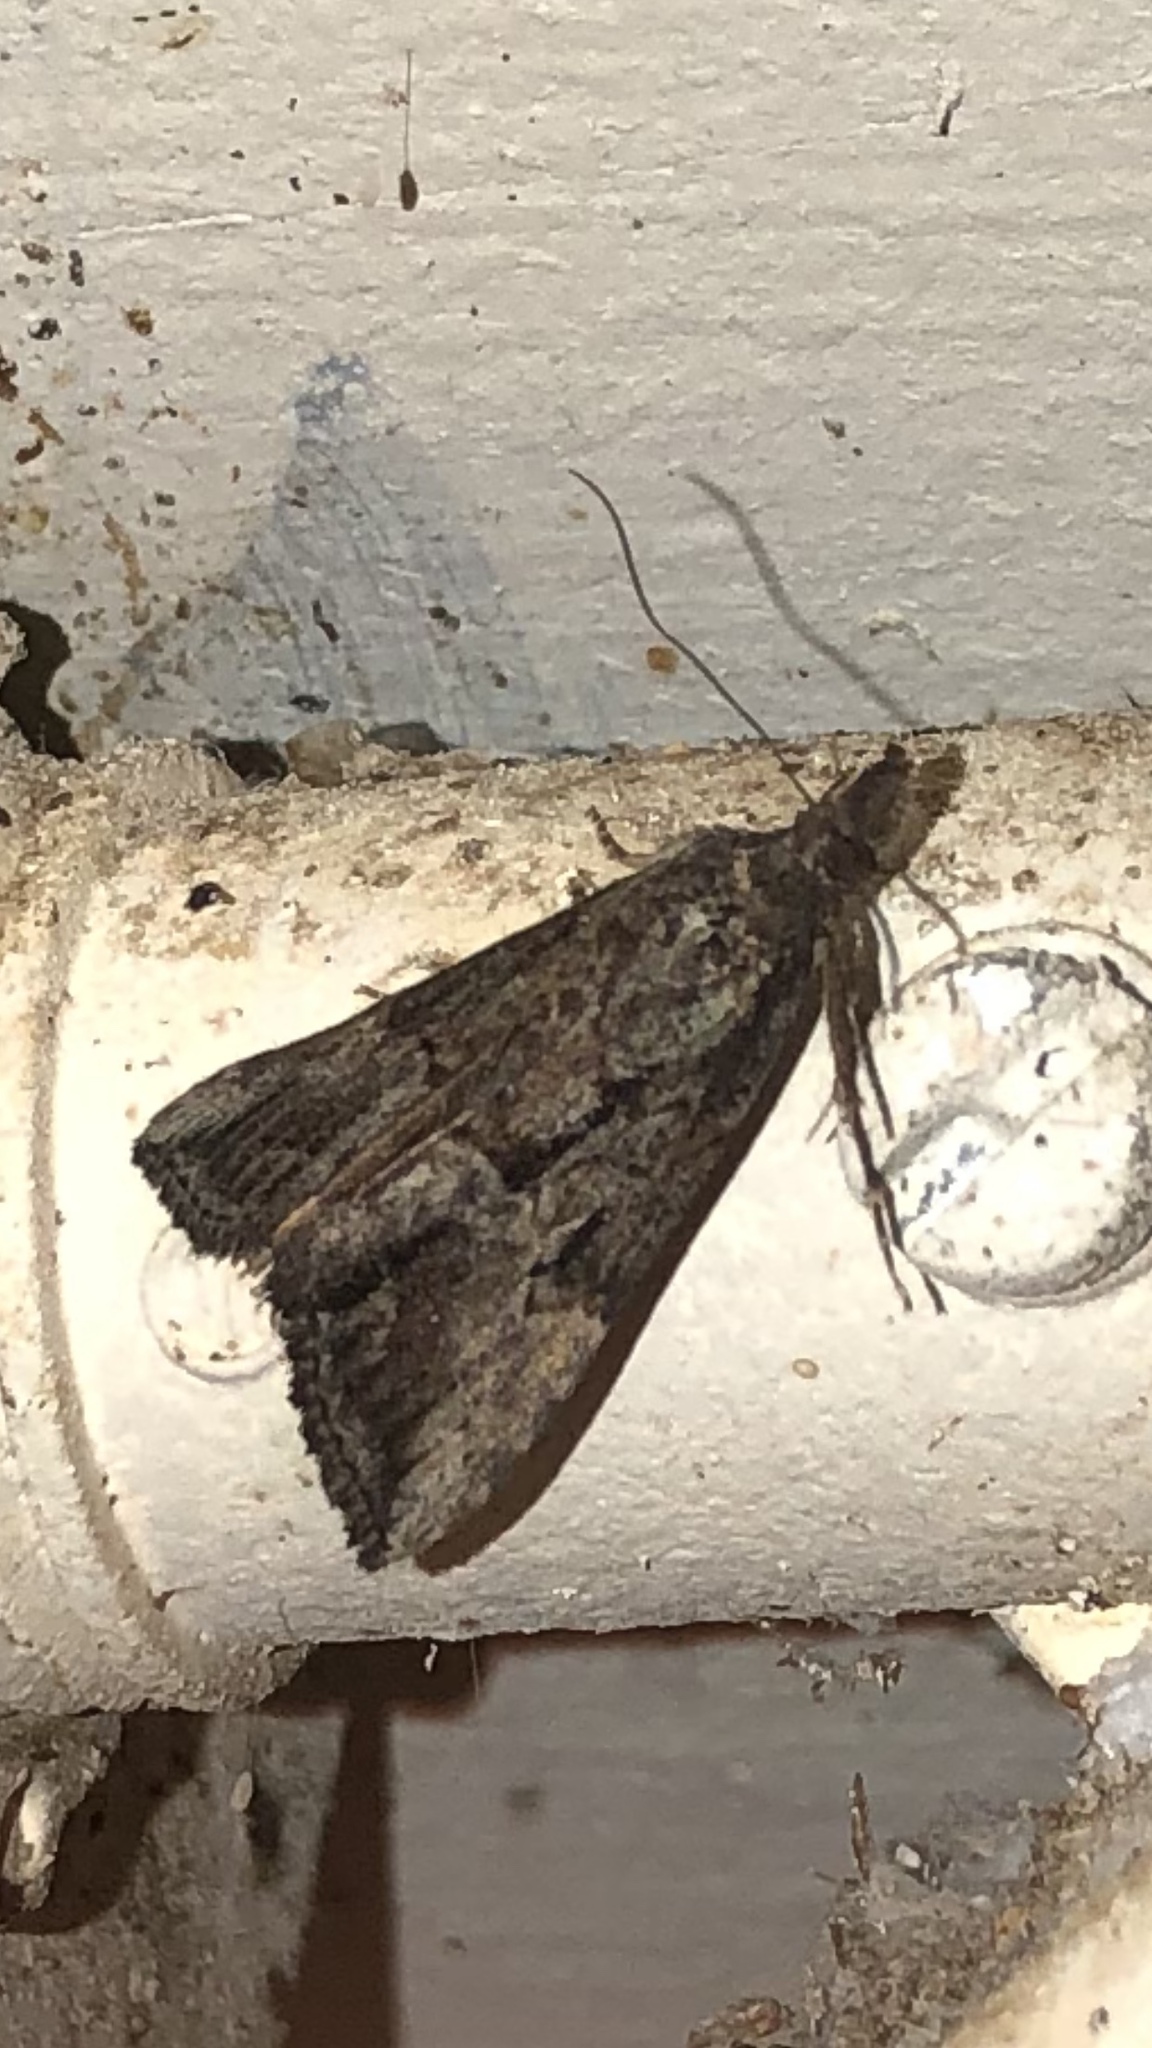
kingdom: Animalia
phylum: Arthropoda
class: Insecta
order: Lepidoptera
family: Erebidae
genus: Hypena
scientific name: Hypena scabra
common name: Green cloverworm
